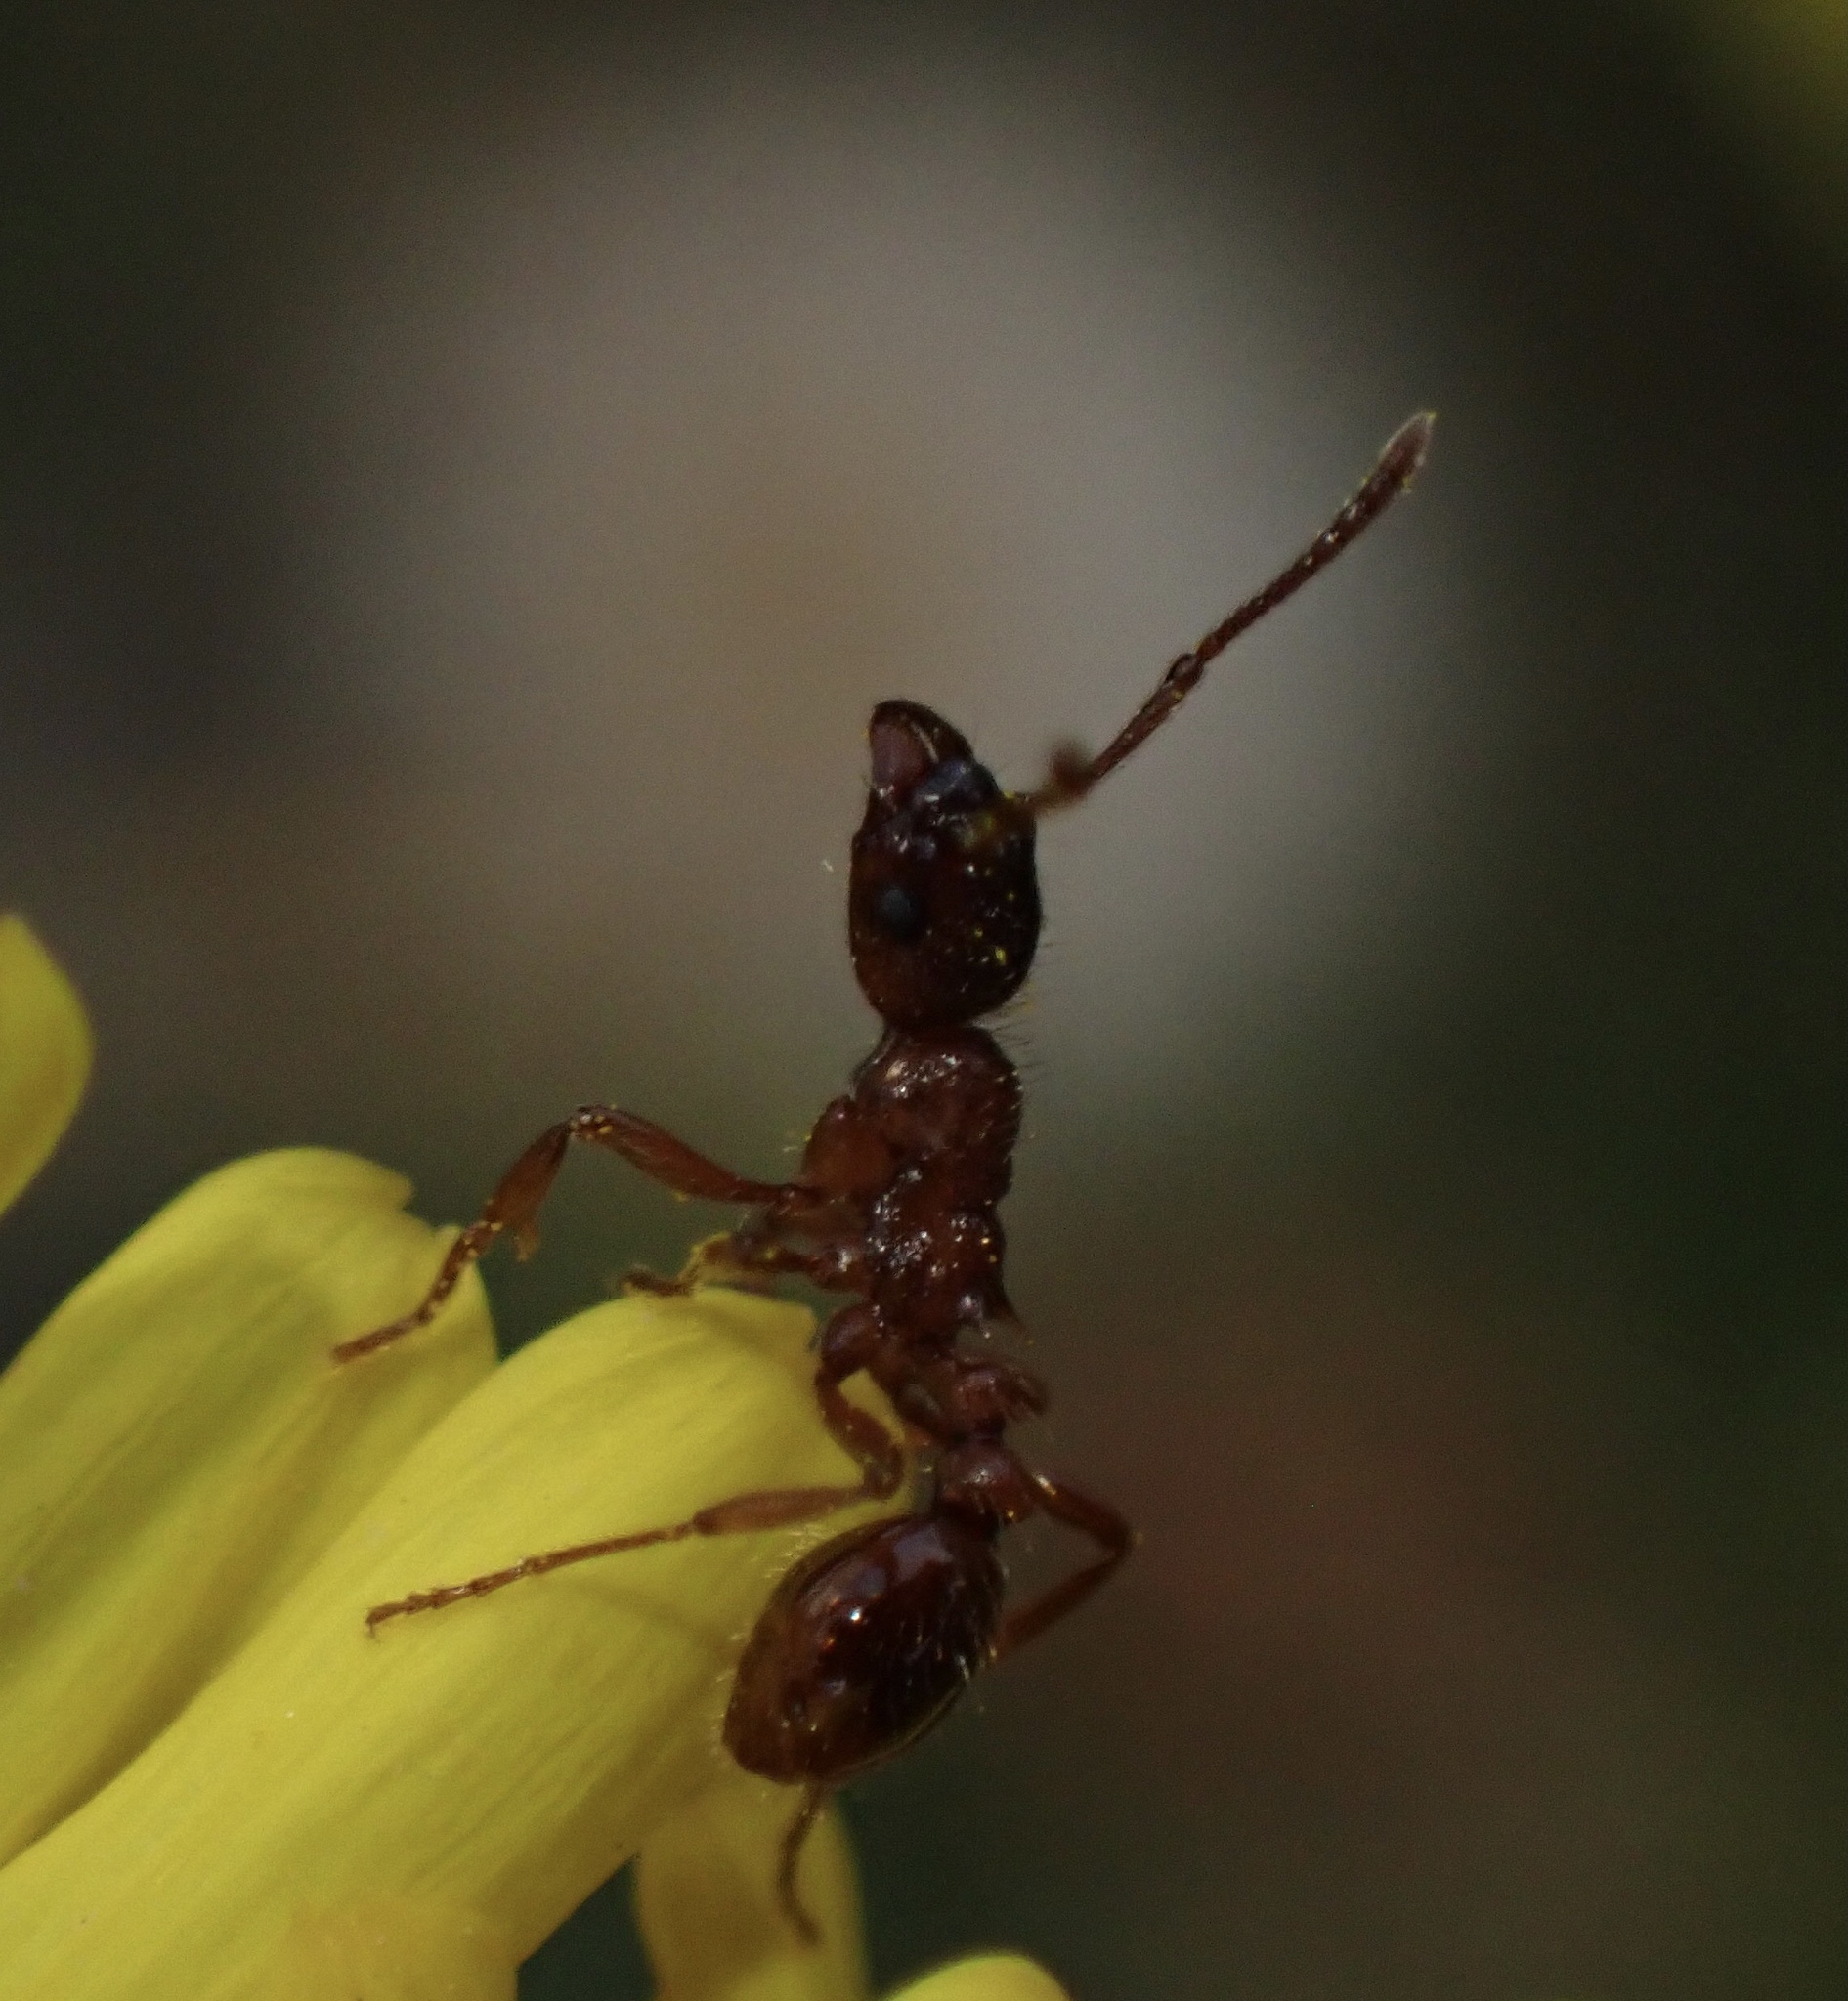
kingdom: Animalia
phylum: Arthropoda
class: Insecta
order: Hymenoptera
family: Formicidae
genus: Myrmica
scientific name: Myrmica rubra
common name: European fire ant
